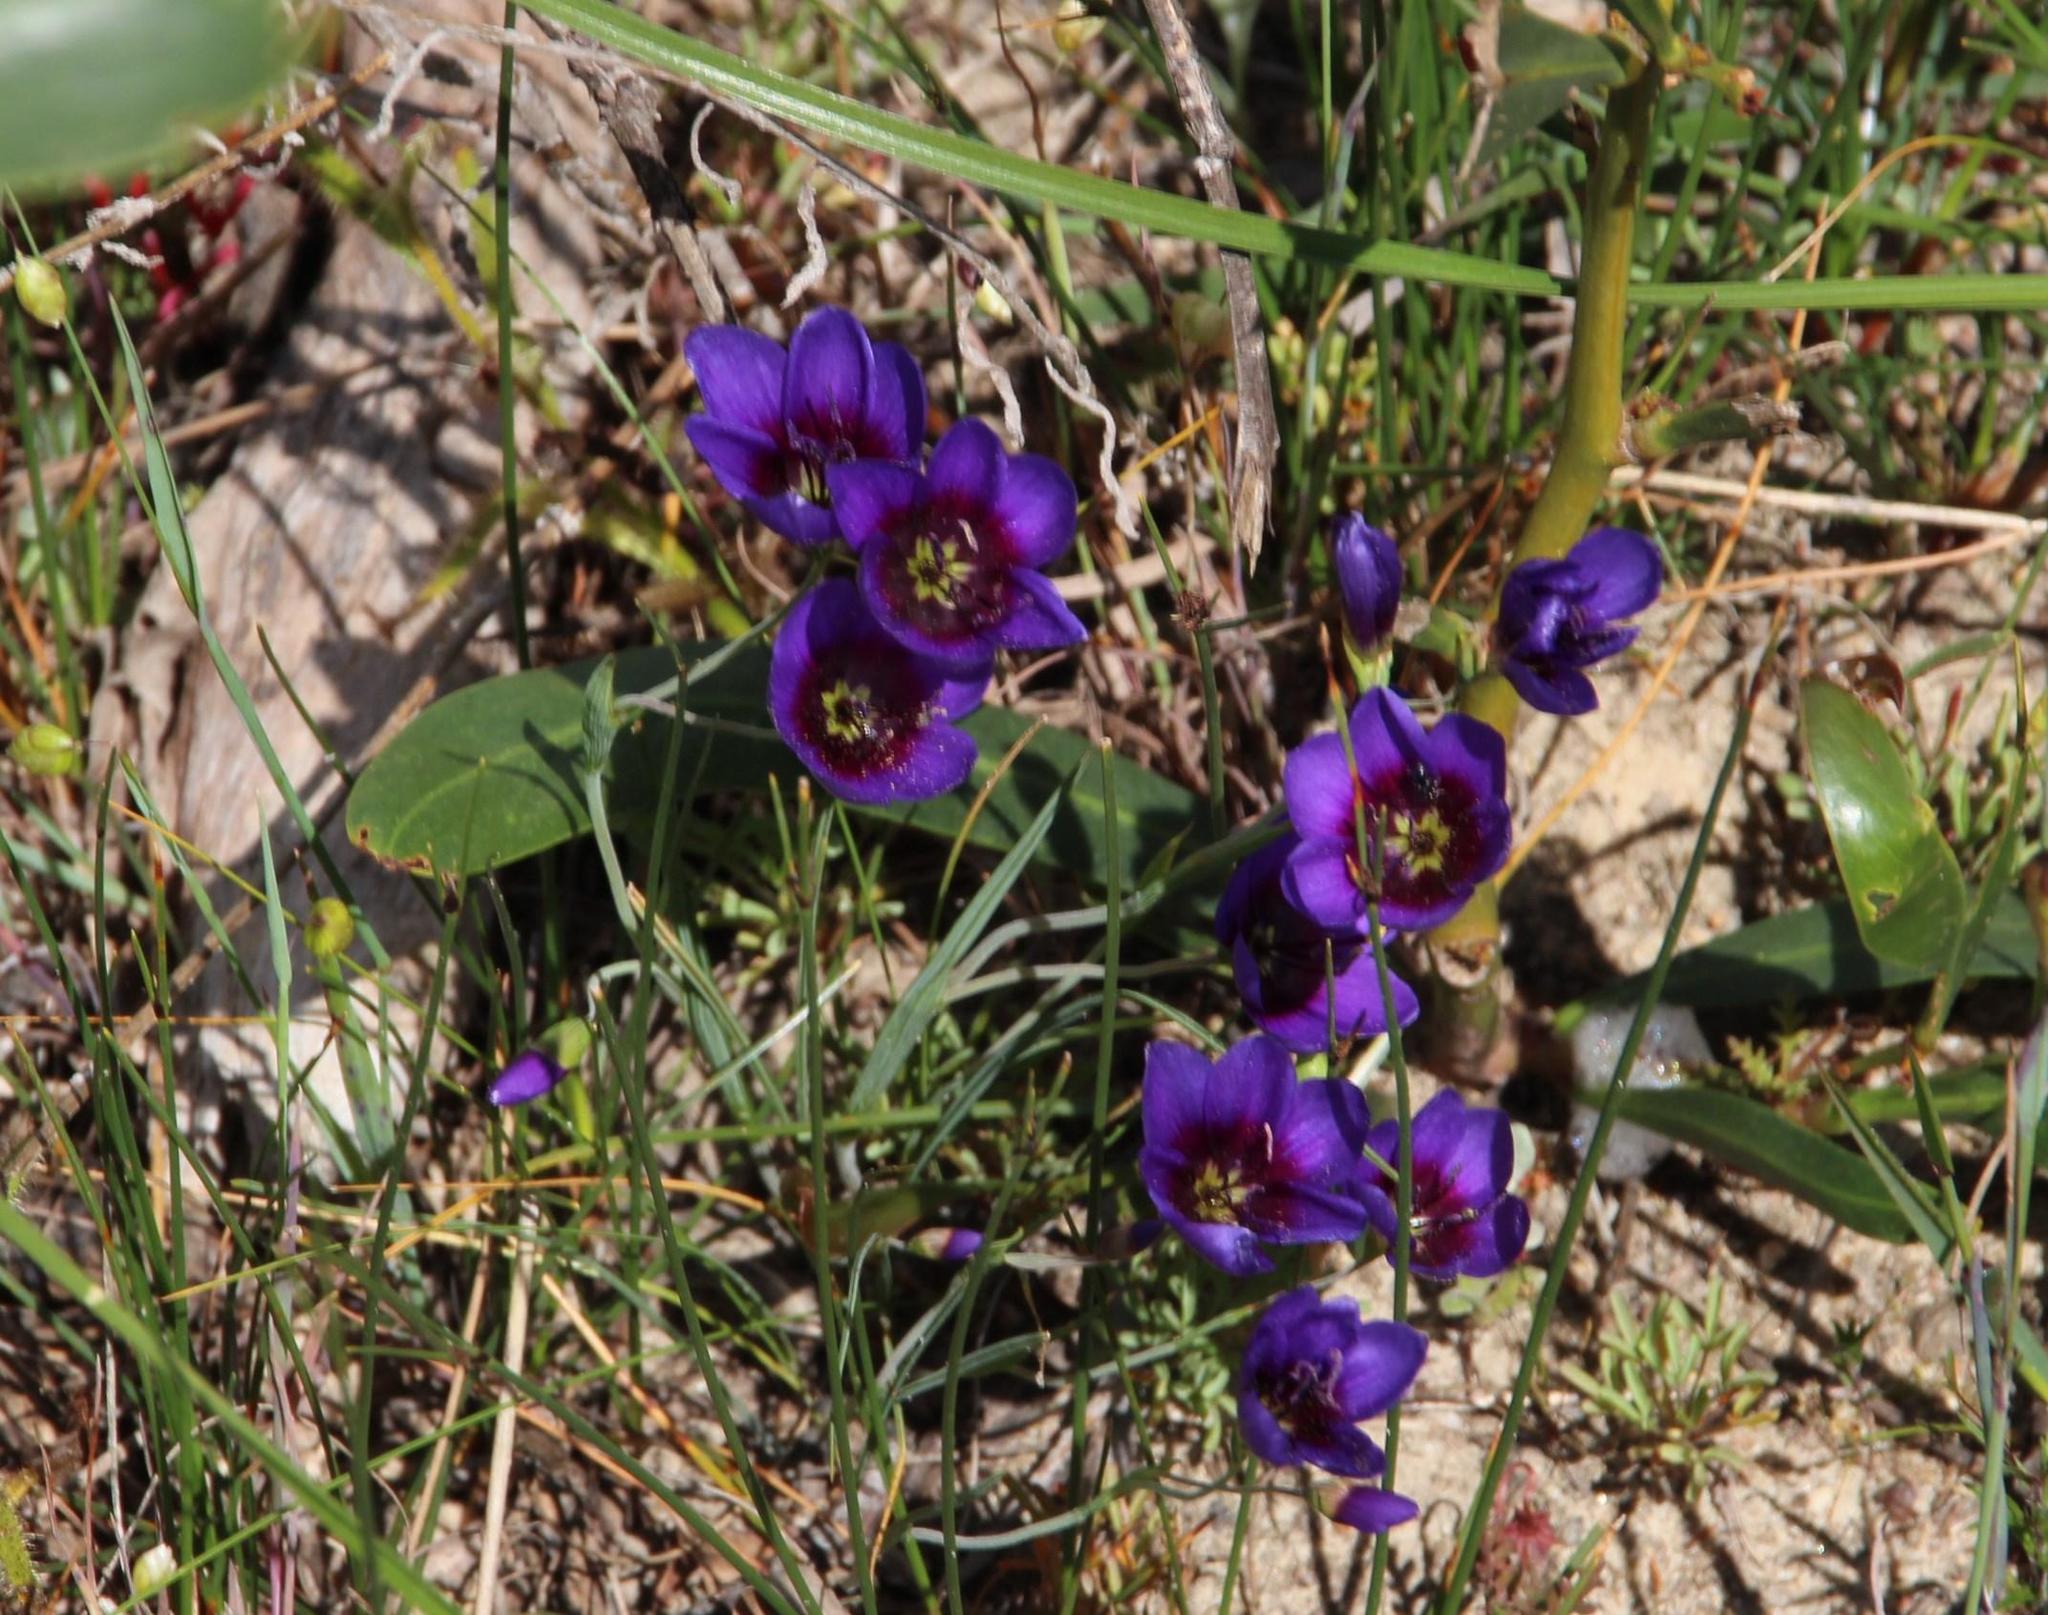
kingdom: Plantae
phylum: Tracheophyta
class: Liliopsida
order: Asparagales
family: Iridaceae
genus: Geissorhiza
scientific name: Geissorhiza monanthos
